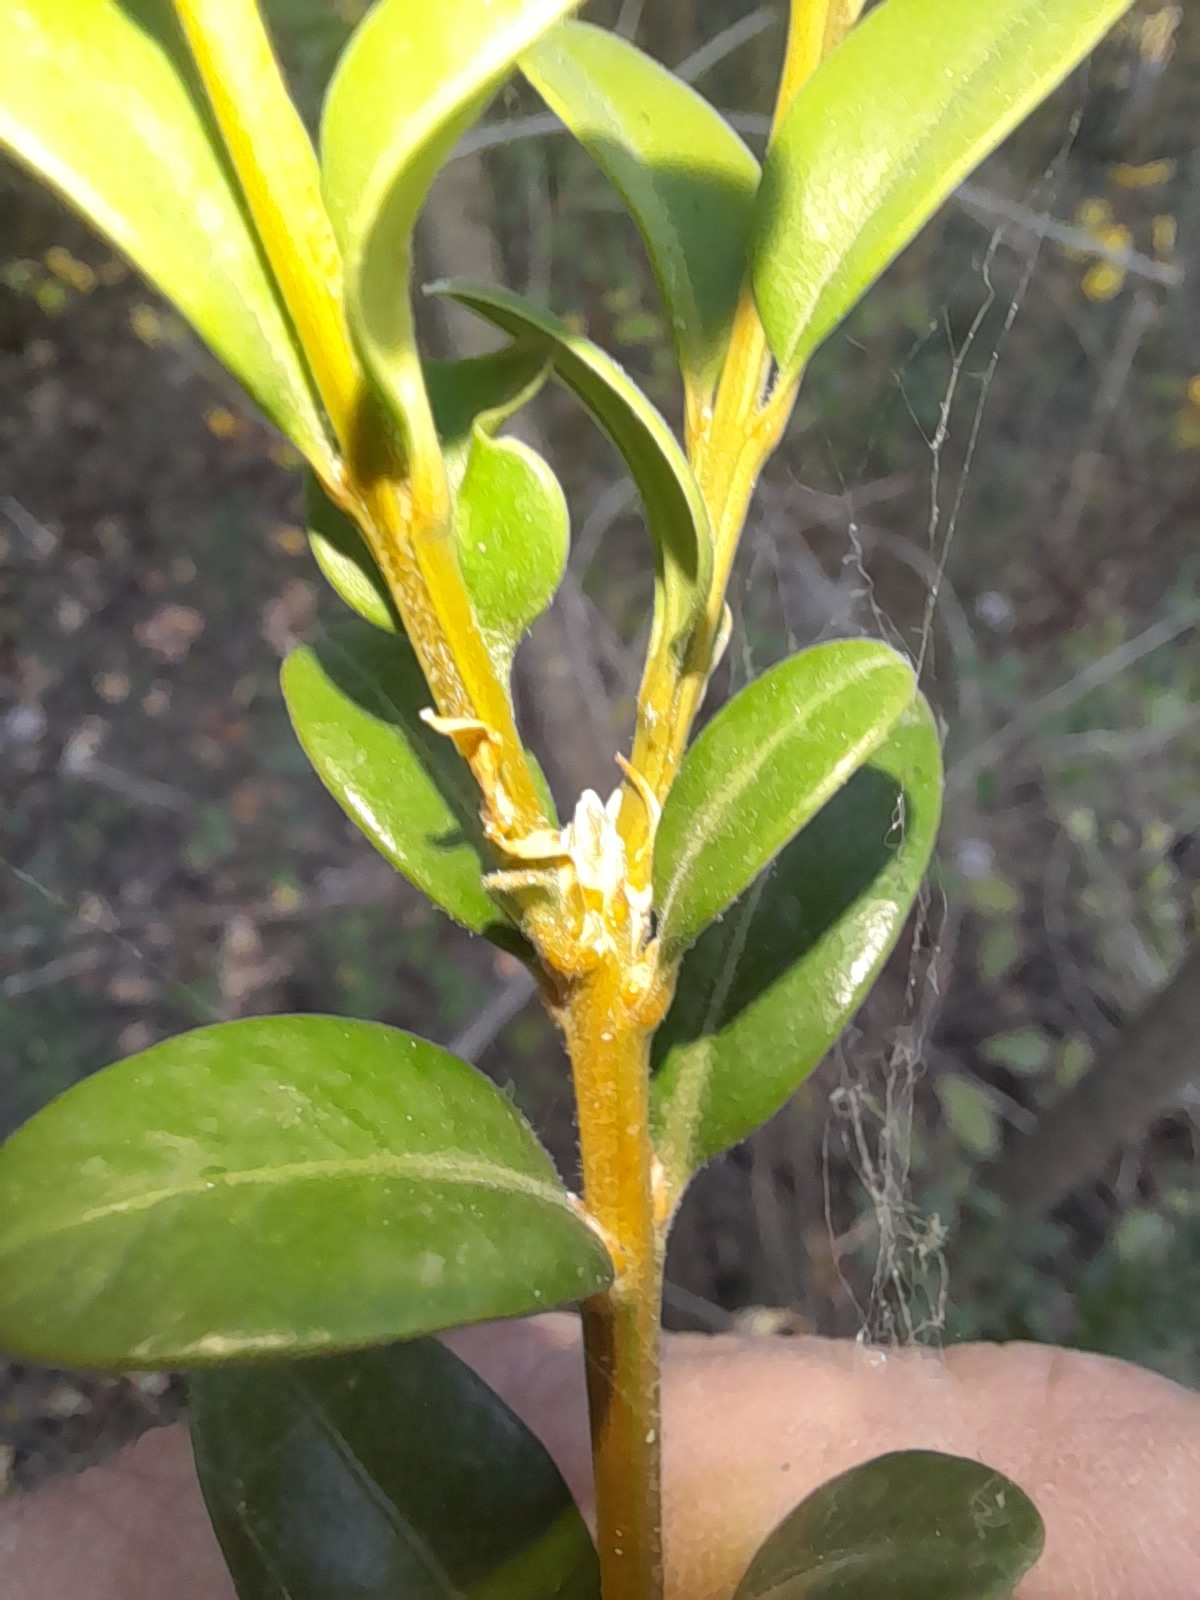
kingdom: Plantae
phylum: Tracheophyta
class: Magnoliopsida
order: Buxales
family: Buxaceae
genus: Buxus
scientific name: Buxus sempervirens
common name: Box
